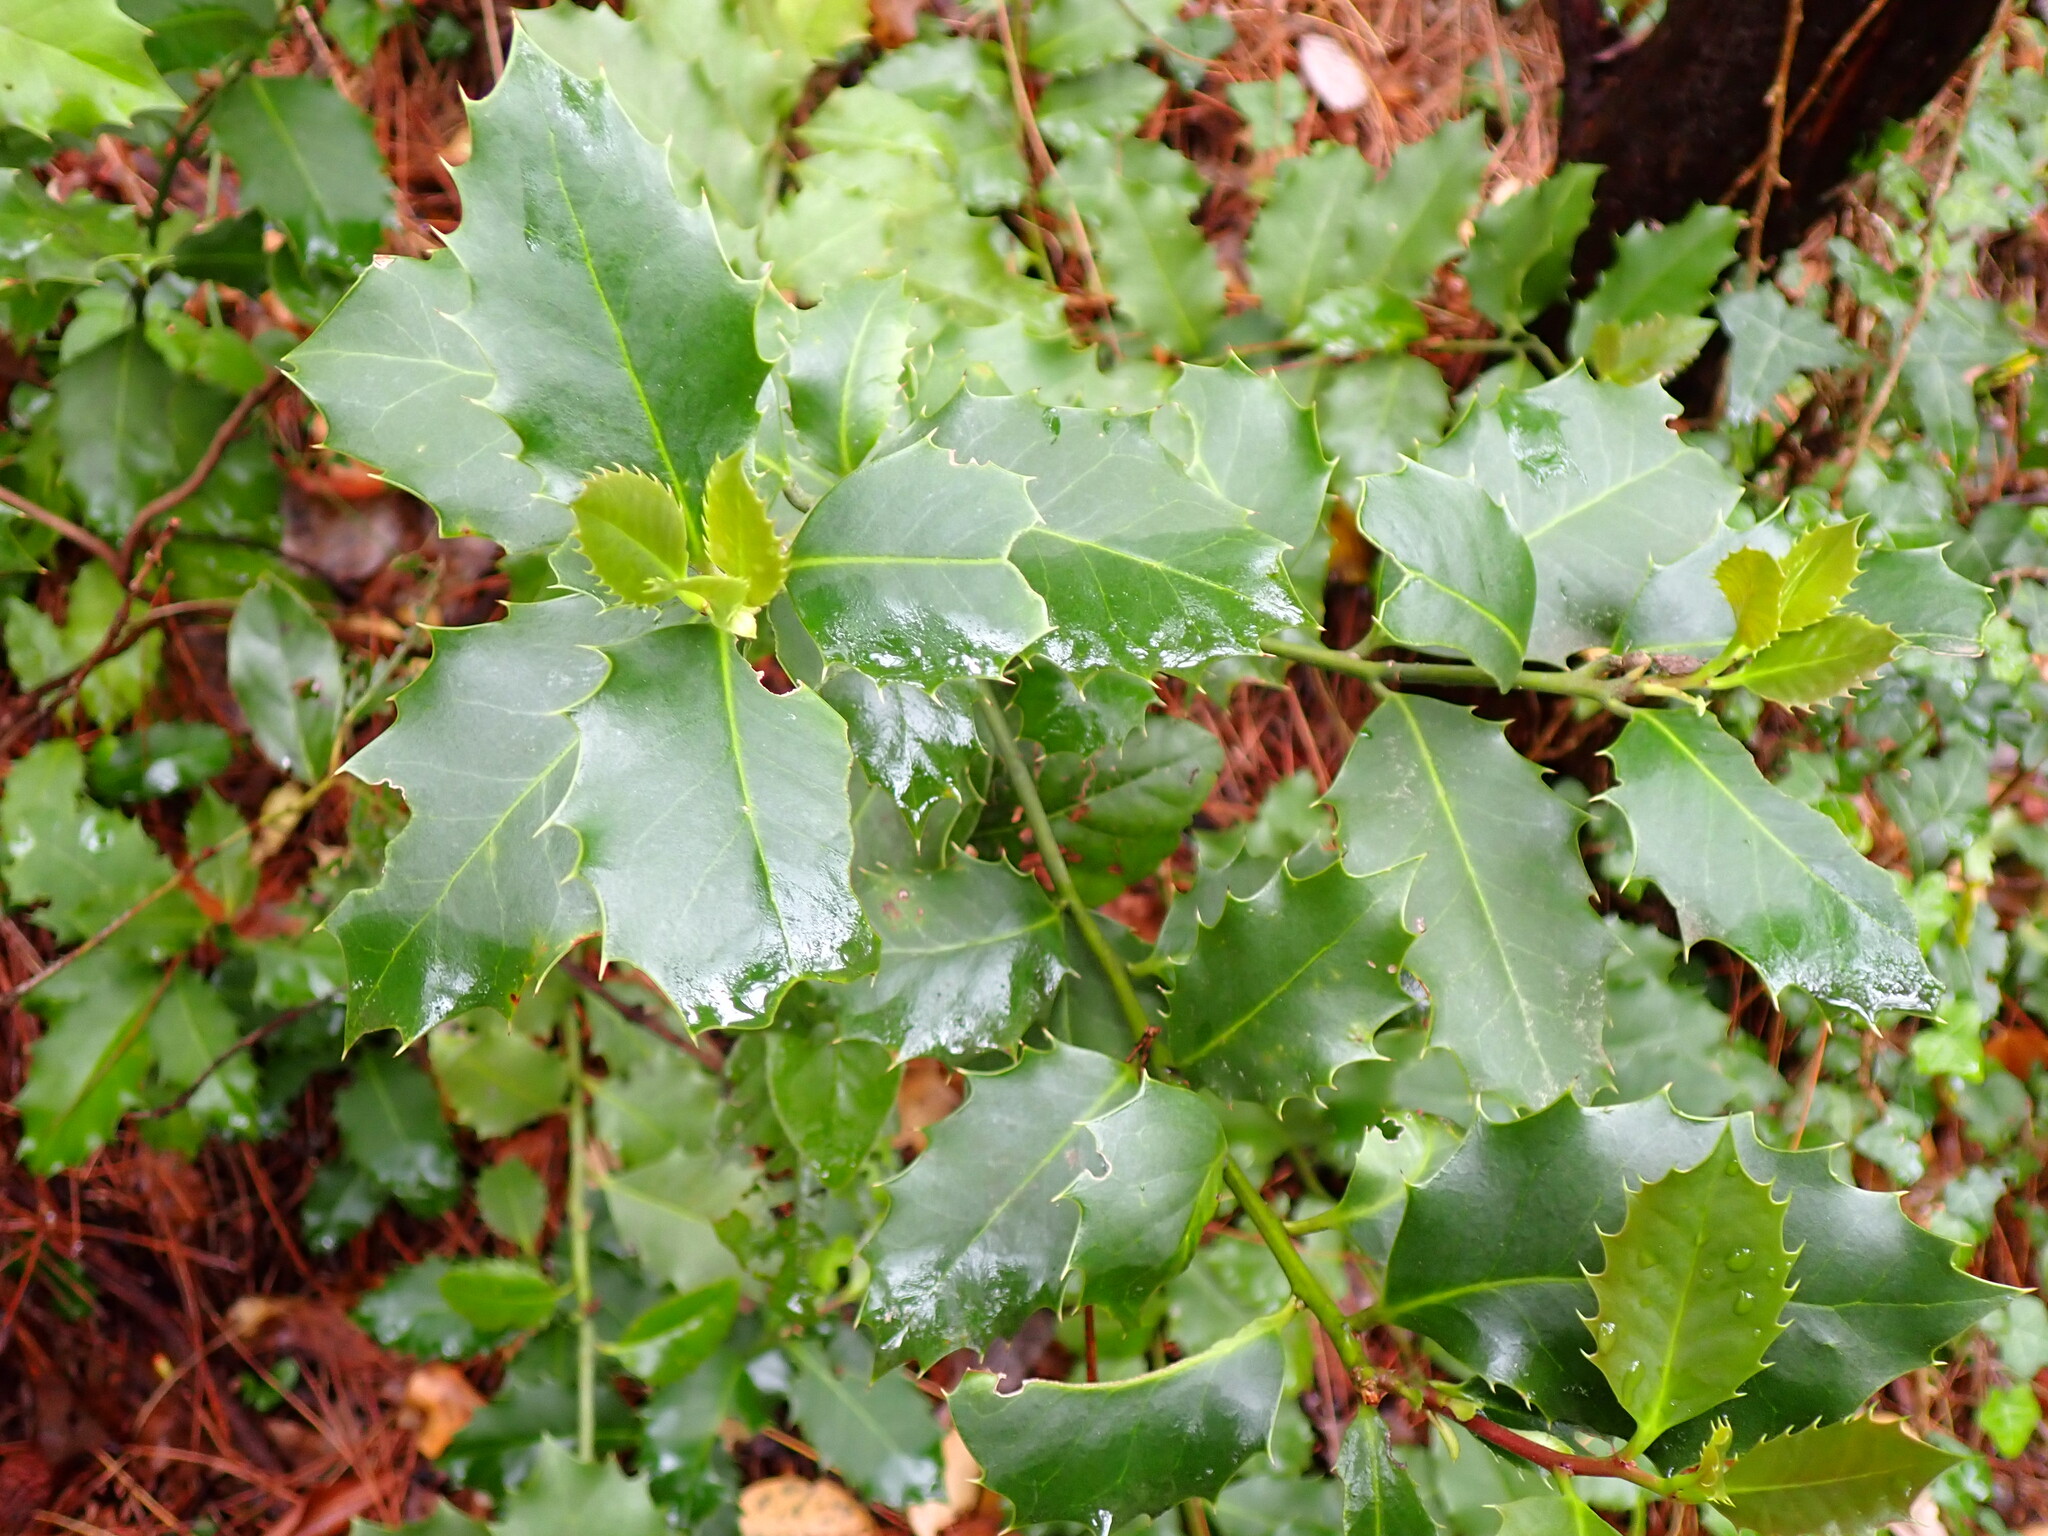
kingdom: Plantae
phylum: Tracheophyta
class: Magnoliopsida
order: Aquifoliales
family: Aquifoliaceae
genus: Ilex
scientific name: Ilex aquifolium
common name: English holly
